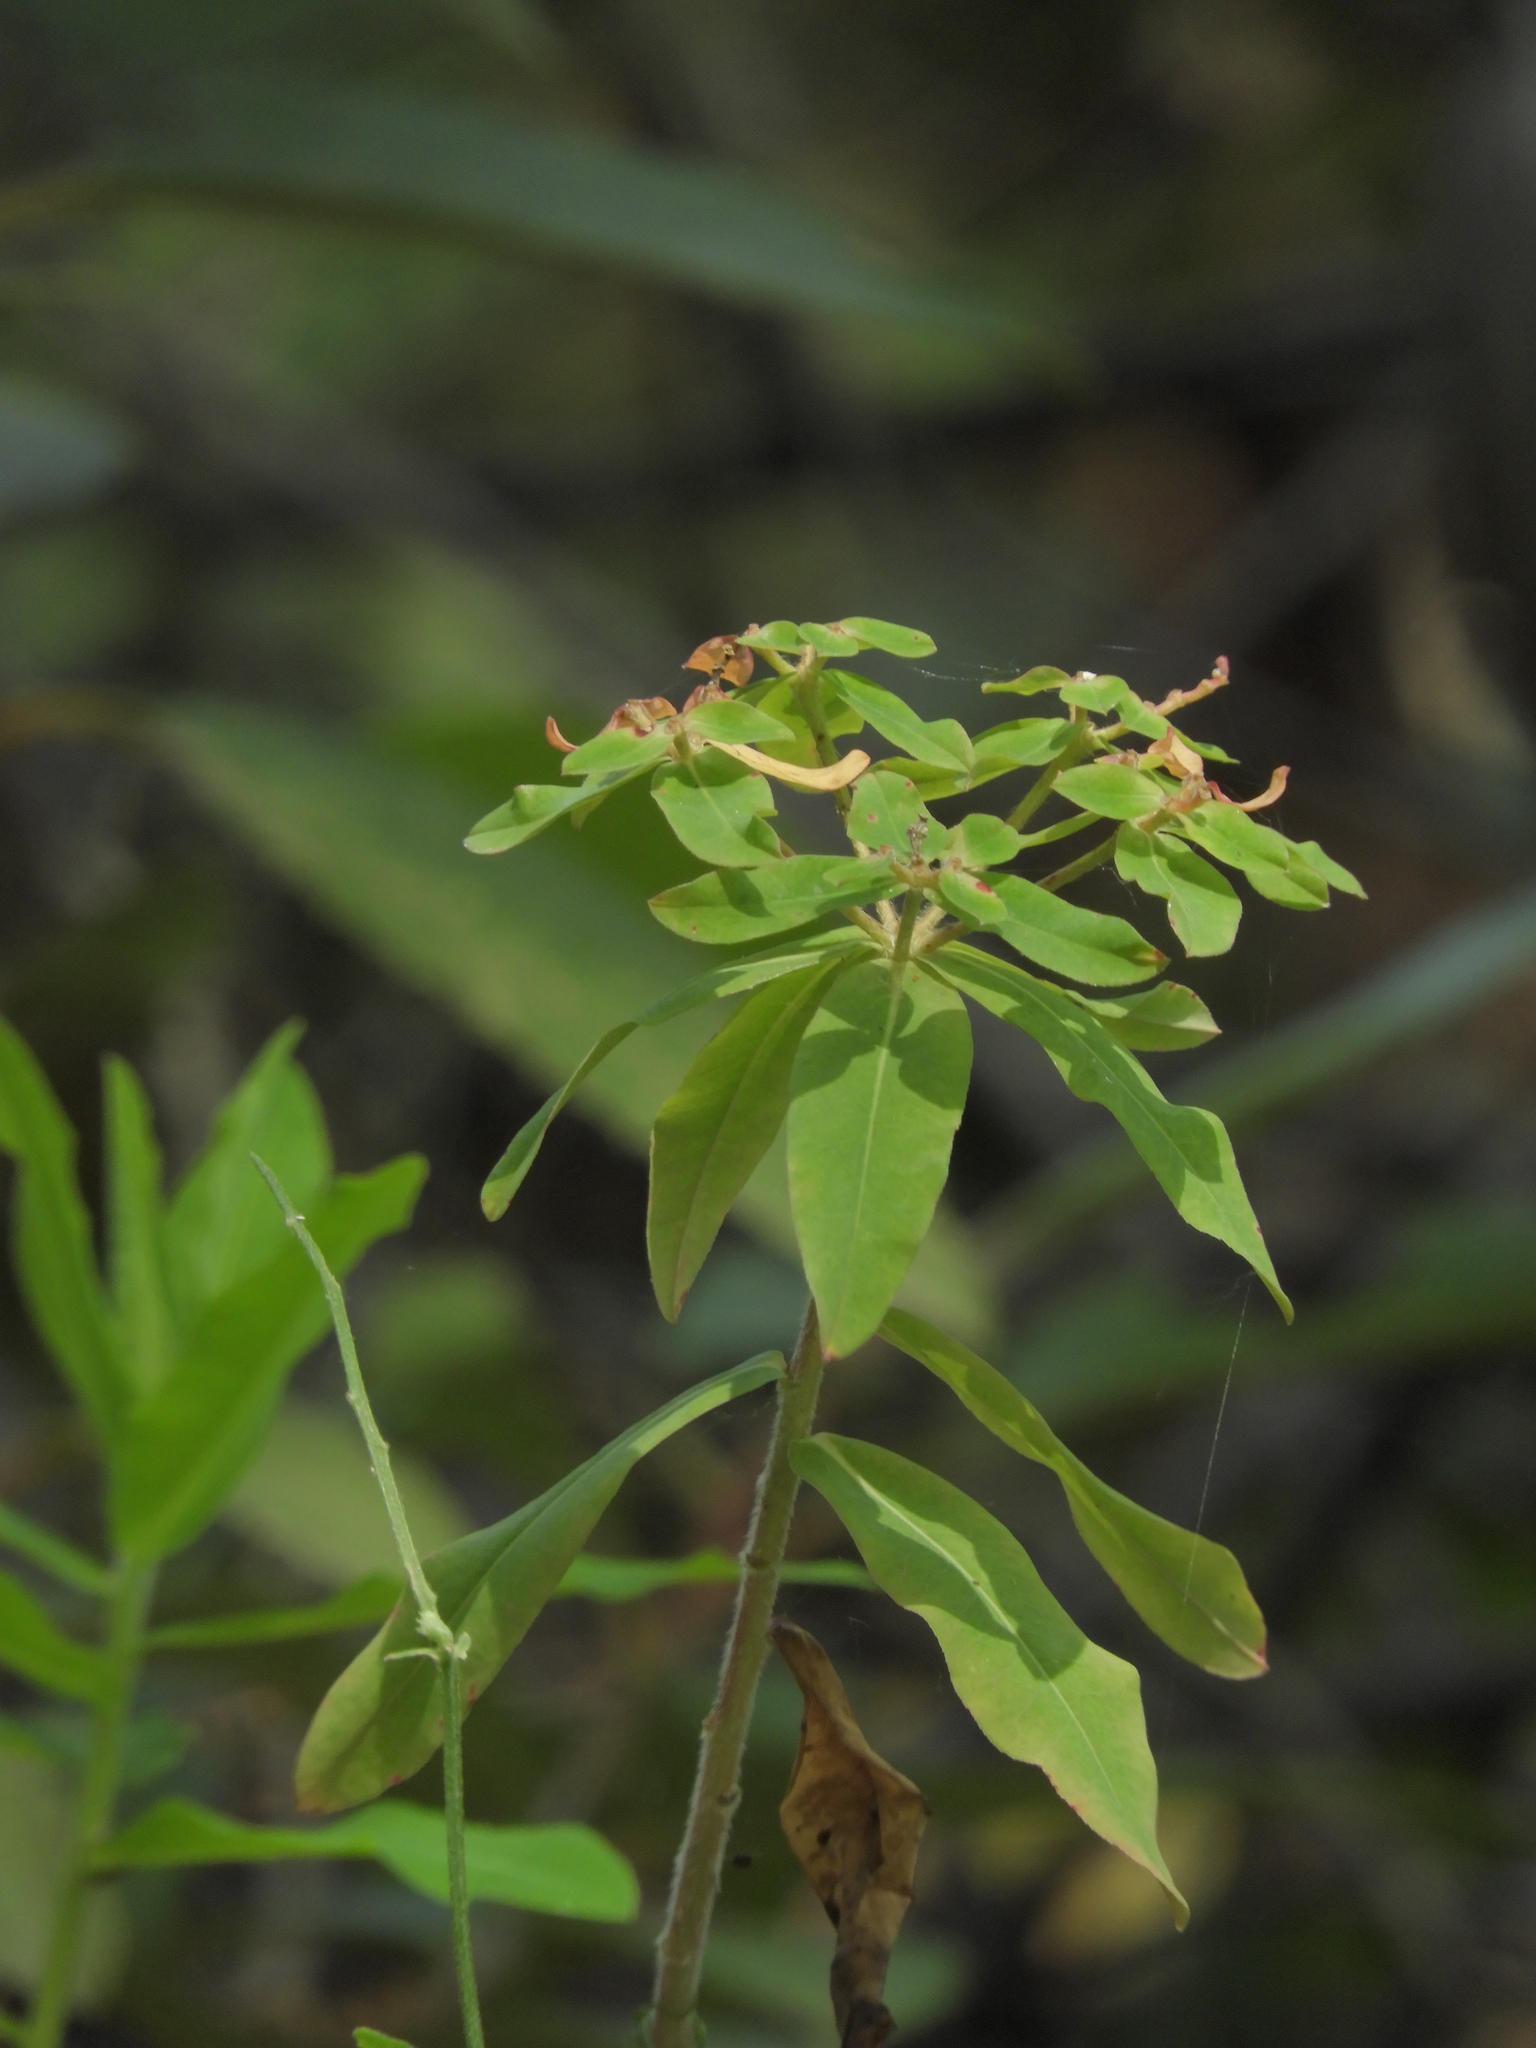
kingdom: Plantae
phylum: Tracheophyta
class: Magnoliopsida
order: Malpighiales
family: Euphorbiaceae
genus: Euphorbia
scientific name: Euphorbia oblongata
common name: Balkan spurge
